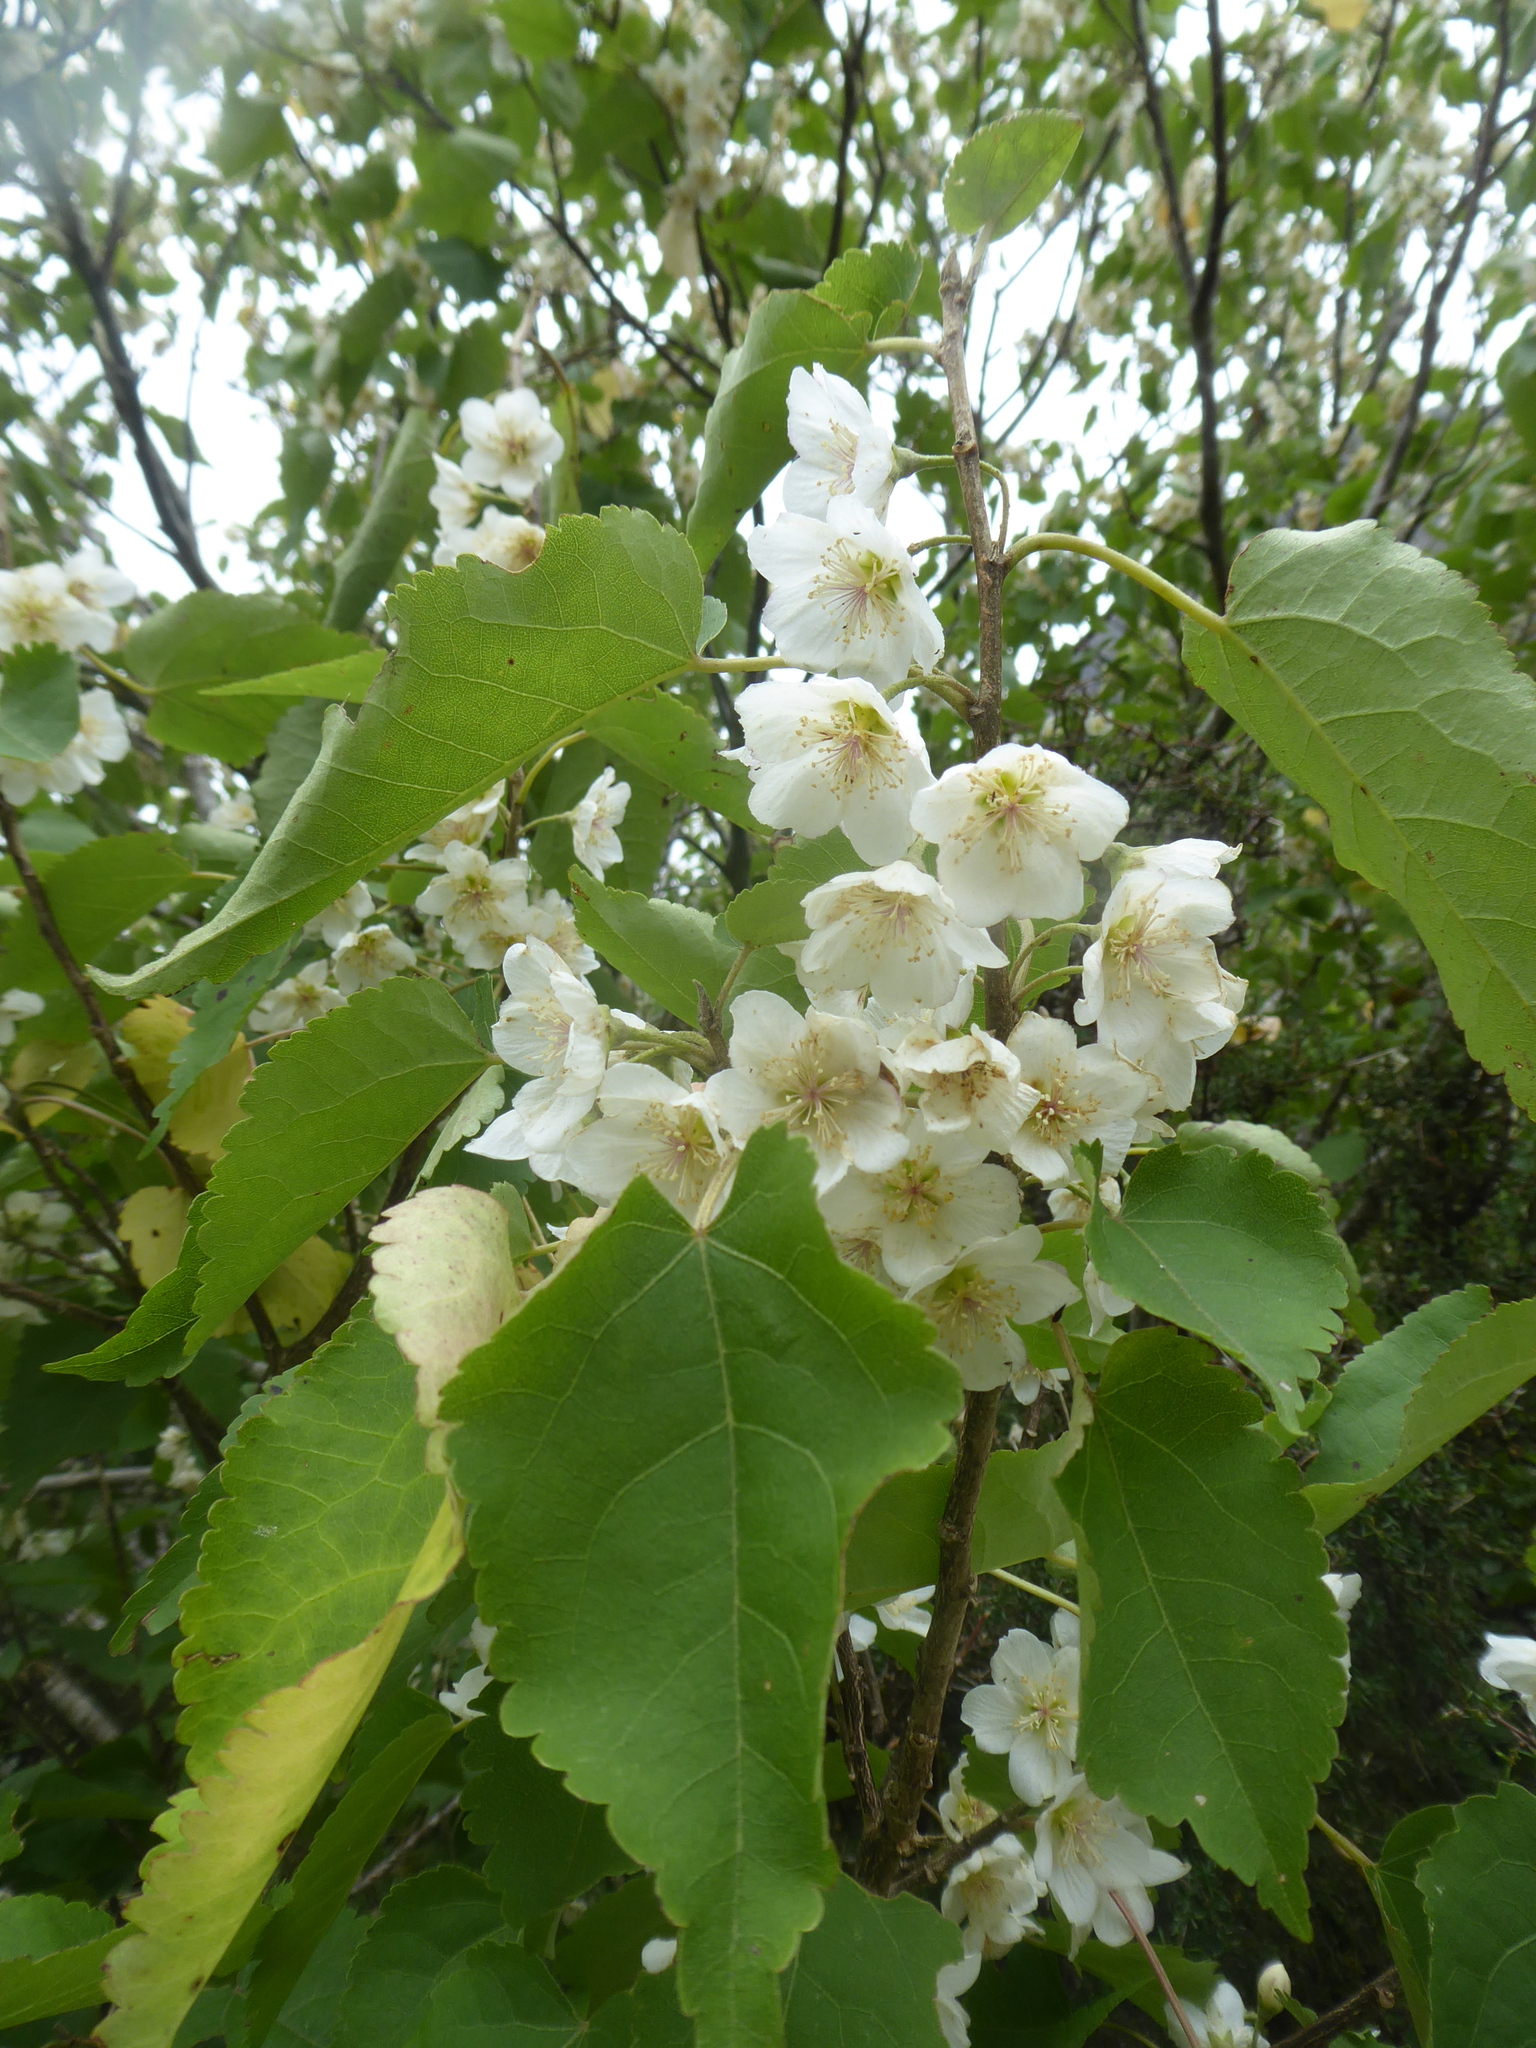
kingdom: Plantae
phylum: Tracheophyta
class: Magnoliopsida
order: Malvales
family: Malvaceae
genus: Hoheria
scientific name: Hoheria glabrata
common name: Mountain-ribbon
